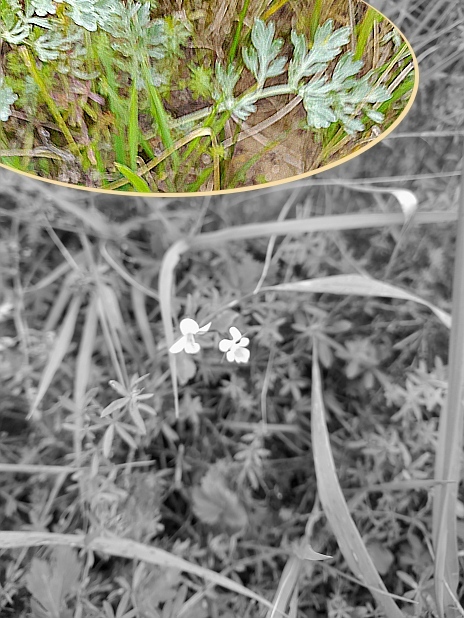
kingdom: Plantae
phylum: Tracheophyta
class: Magnoliopsida
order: Asterales
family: Asteraceae
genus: Artemisia
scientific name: Artemisia absinthium
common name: Wormwood
